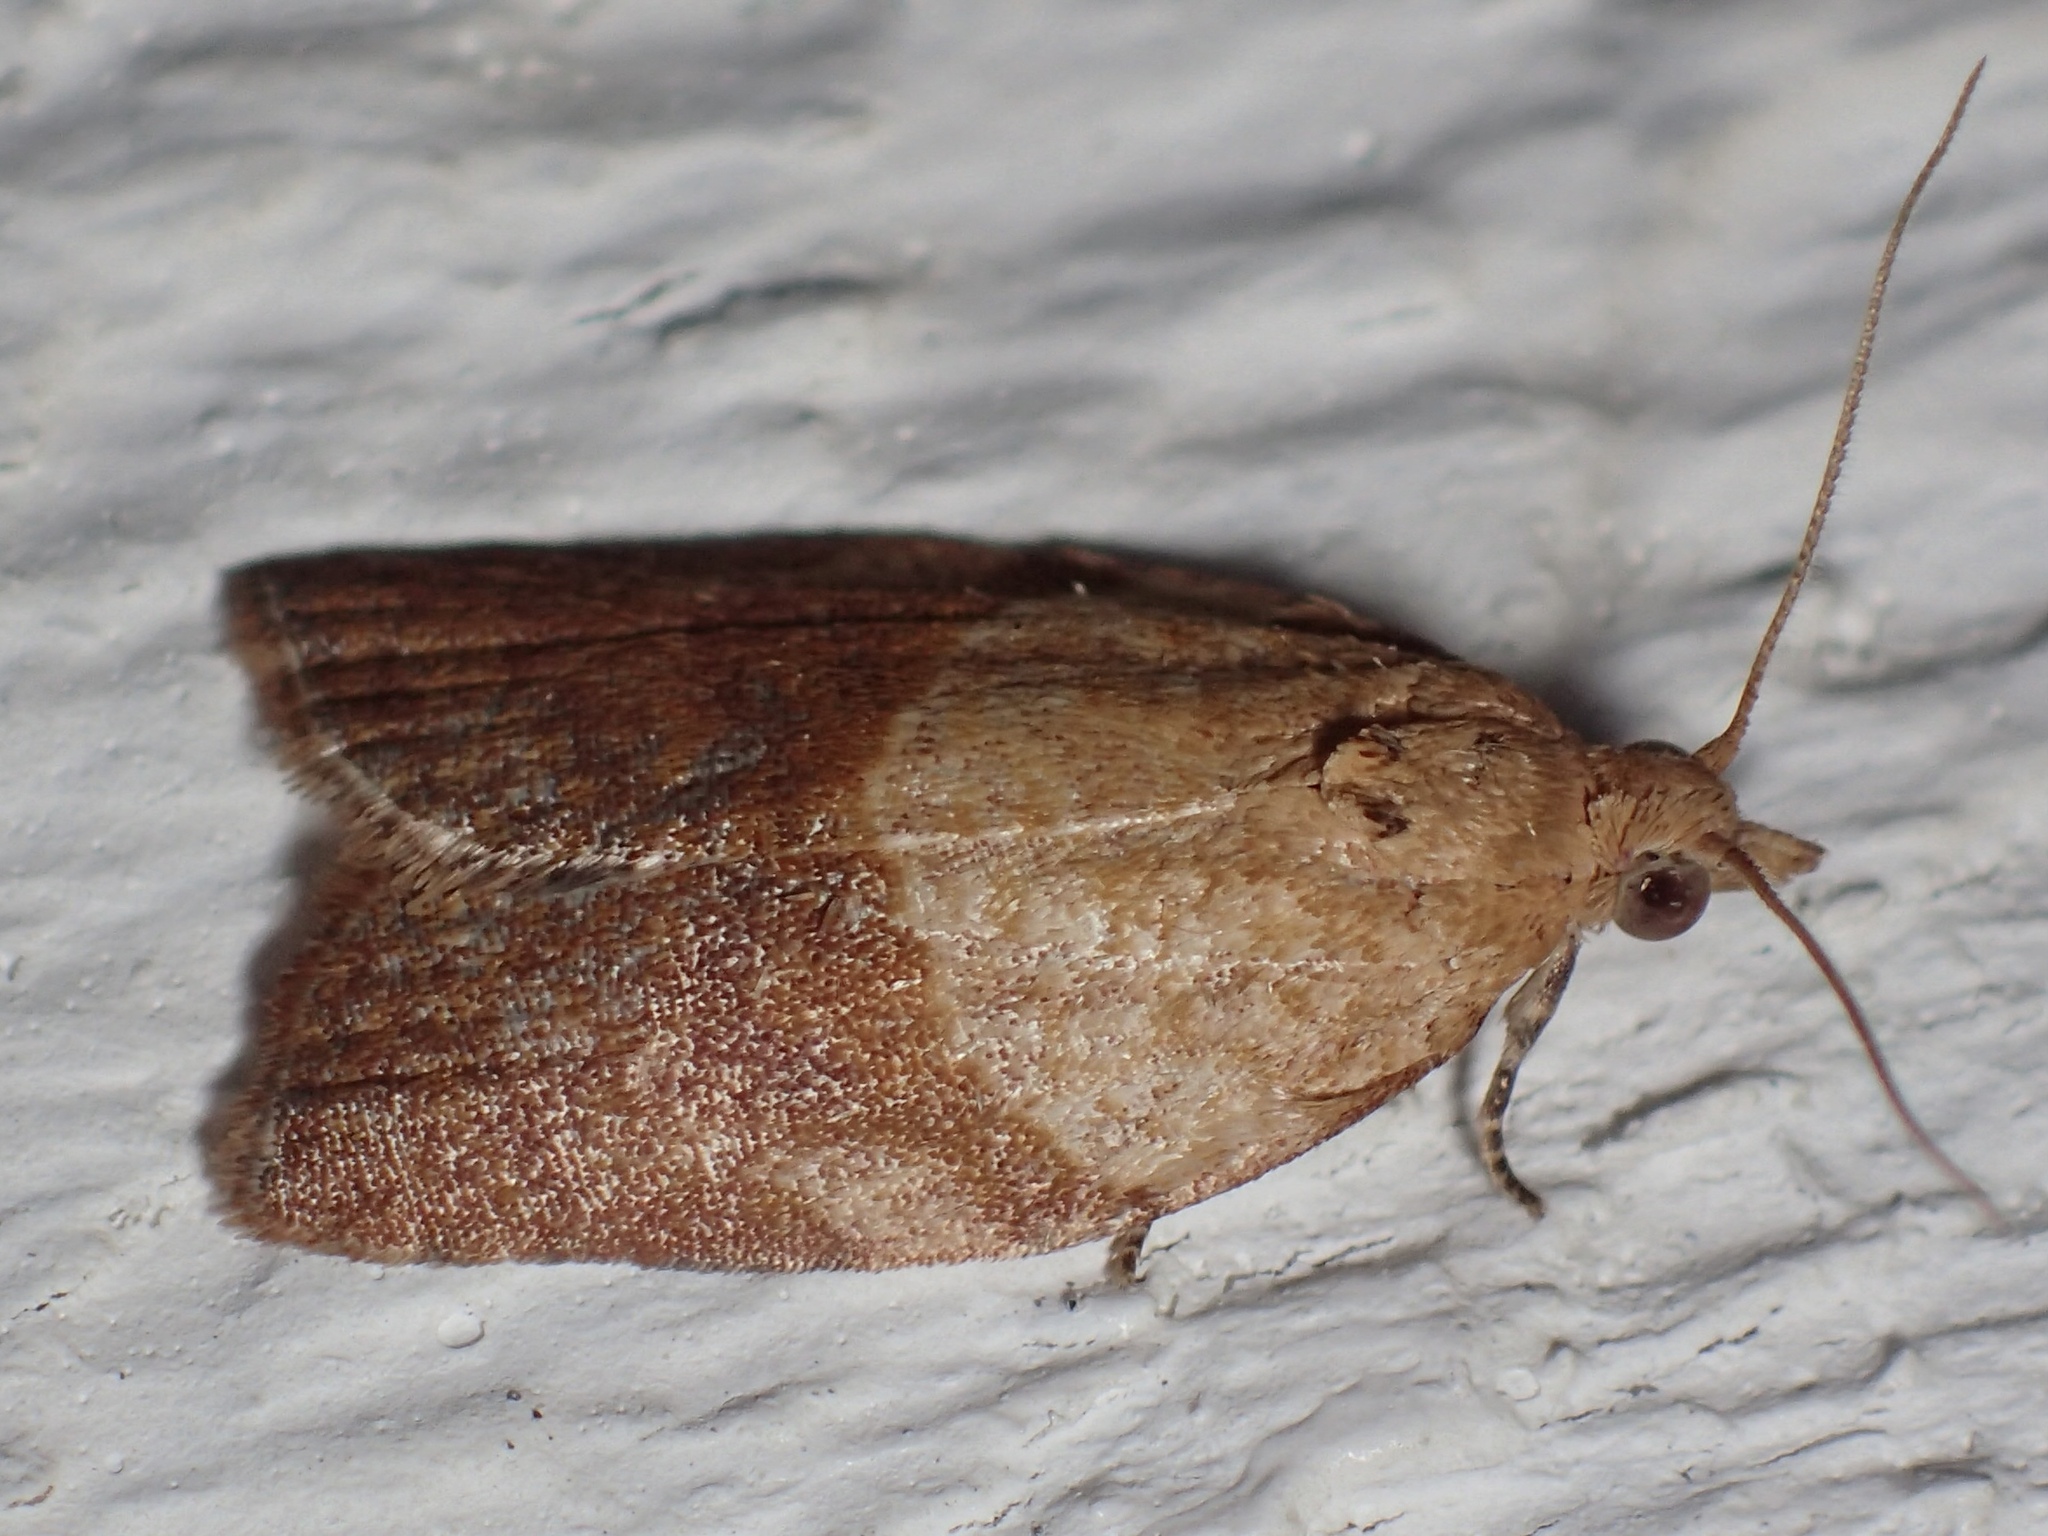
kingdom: Animalia
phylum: Arthropoda
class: Insecta
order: Lepidoptera
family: Tortricidae
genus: Epiphyas
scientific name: Epiphyas postvittana
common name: Light brown apple moth
